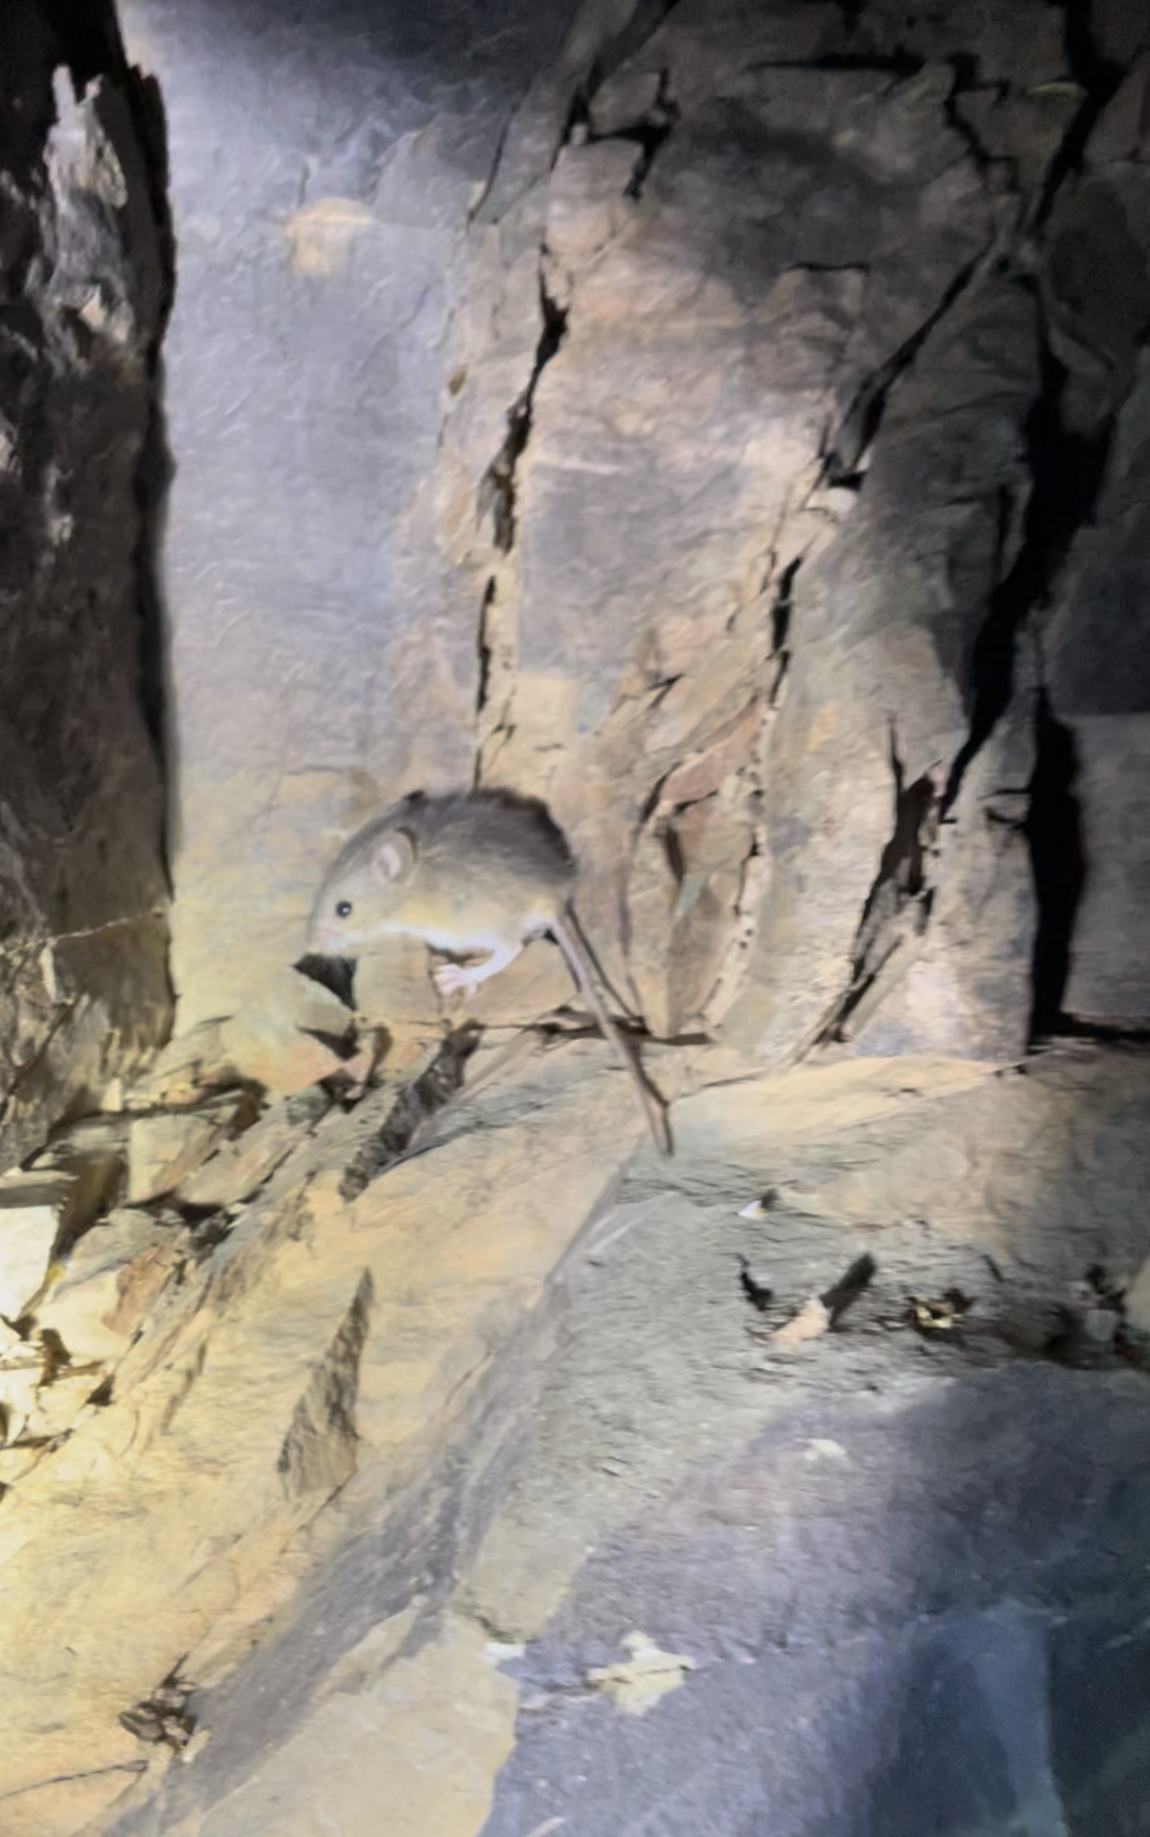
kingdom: Animalia
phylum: Chordata
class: Mammalia
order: Rodentia
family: Muridae
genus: Micaelamys
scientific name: Micaelamys namaquensis
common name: Namaqua micaelamys
